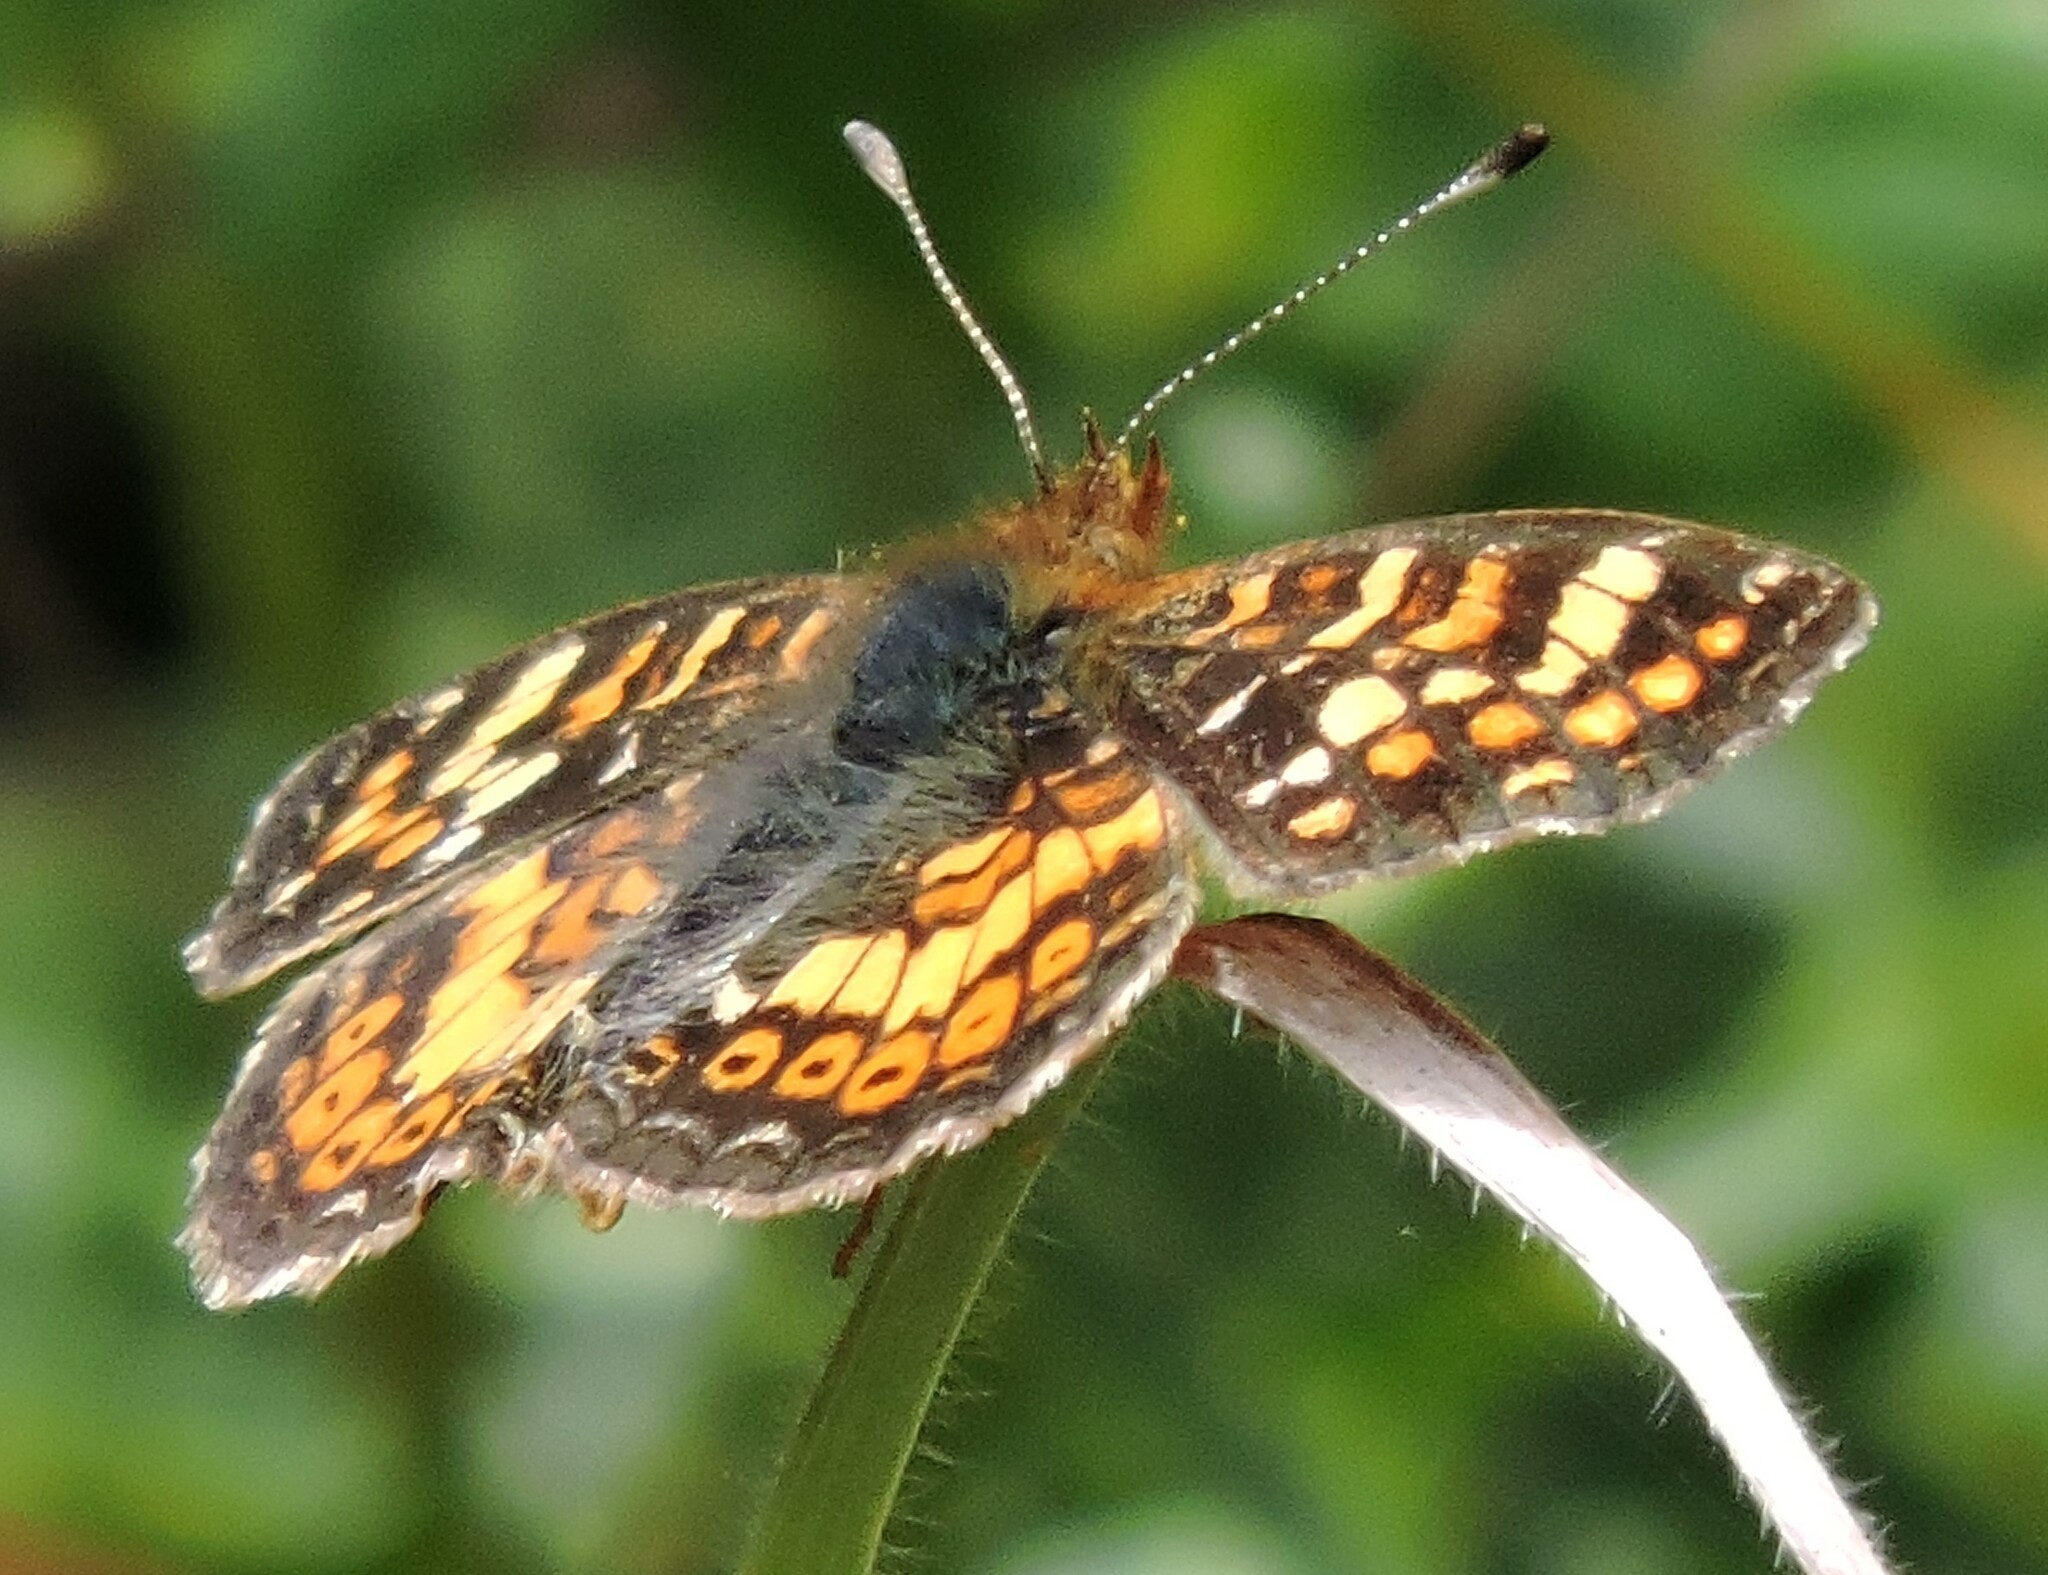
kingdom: Animalia
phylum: Arthropoda
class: Insecta
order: Lepidoptera
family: Nymphalidae
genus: Phyciodes
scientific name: Phyciodes tharos
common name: Pearl crescent
